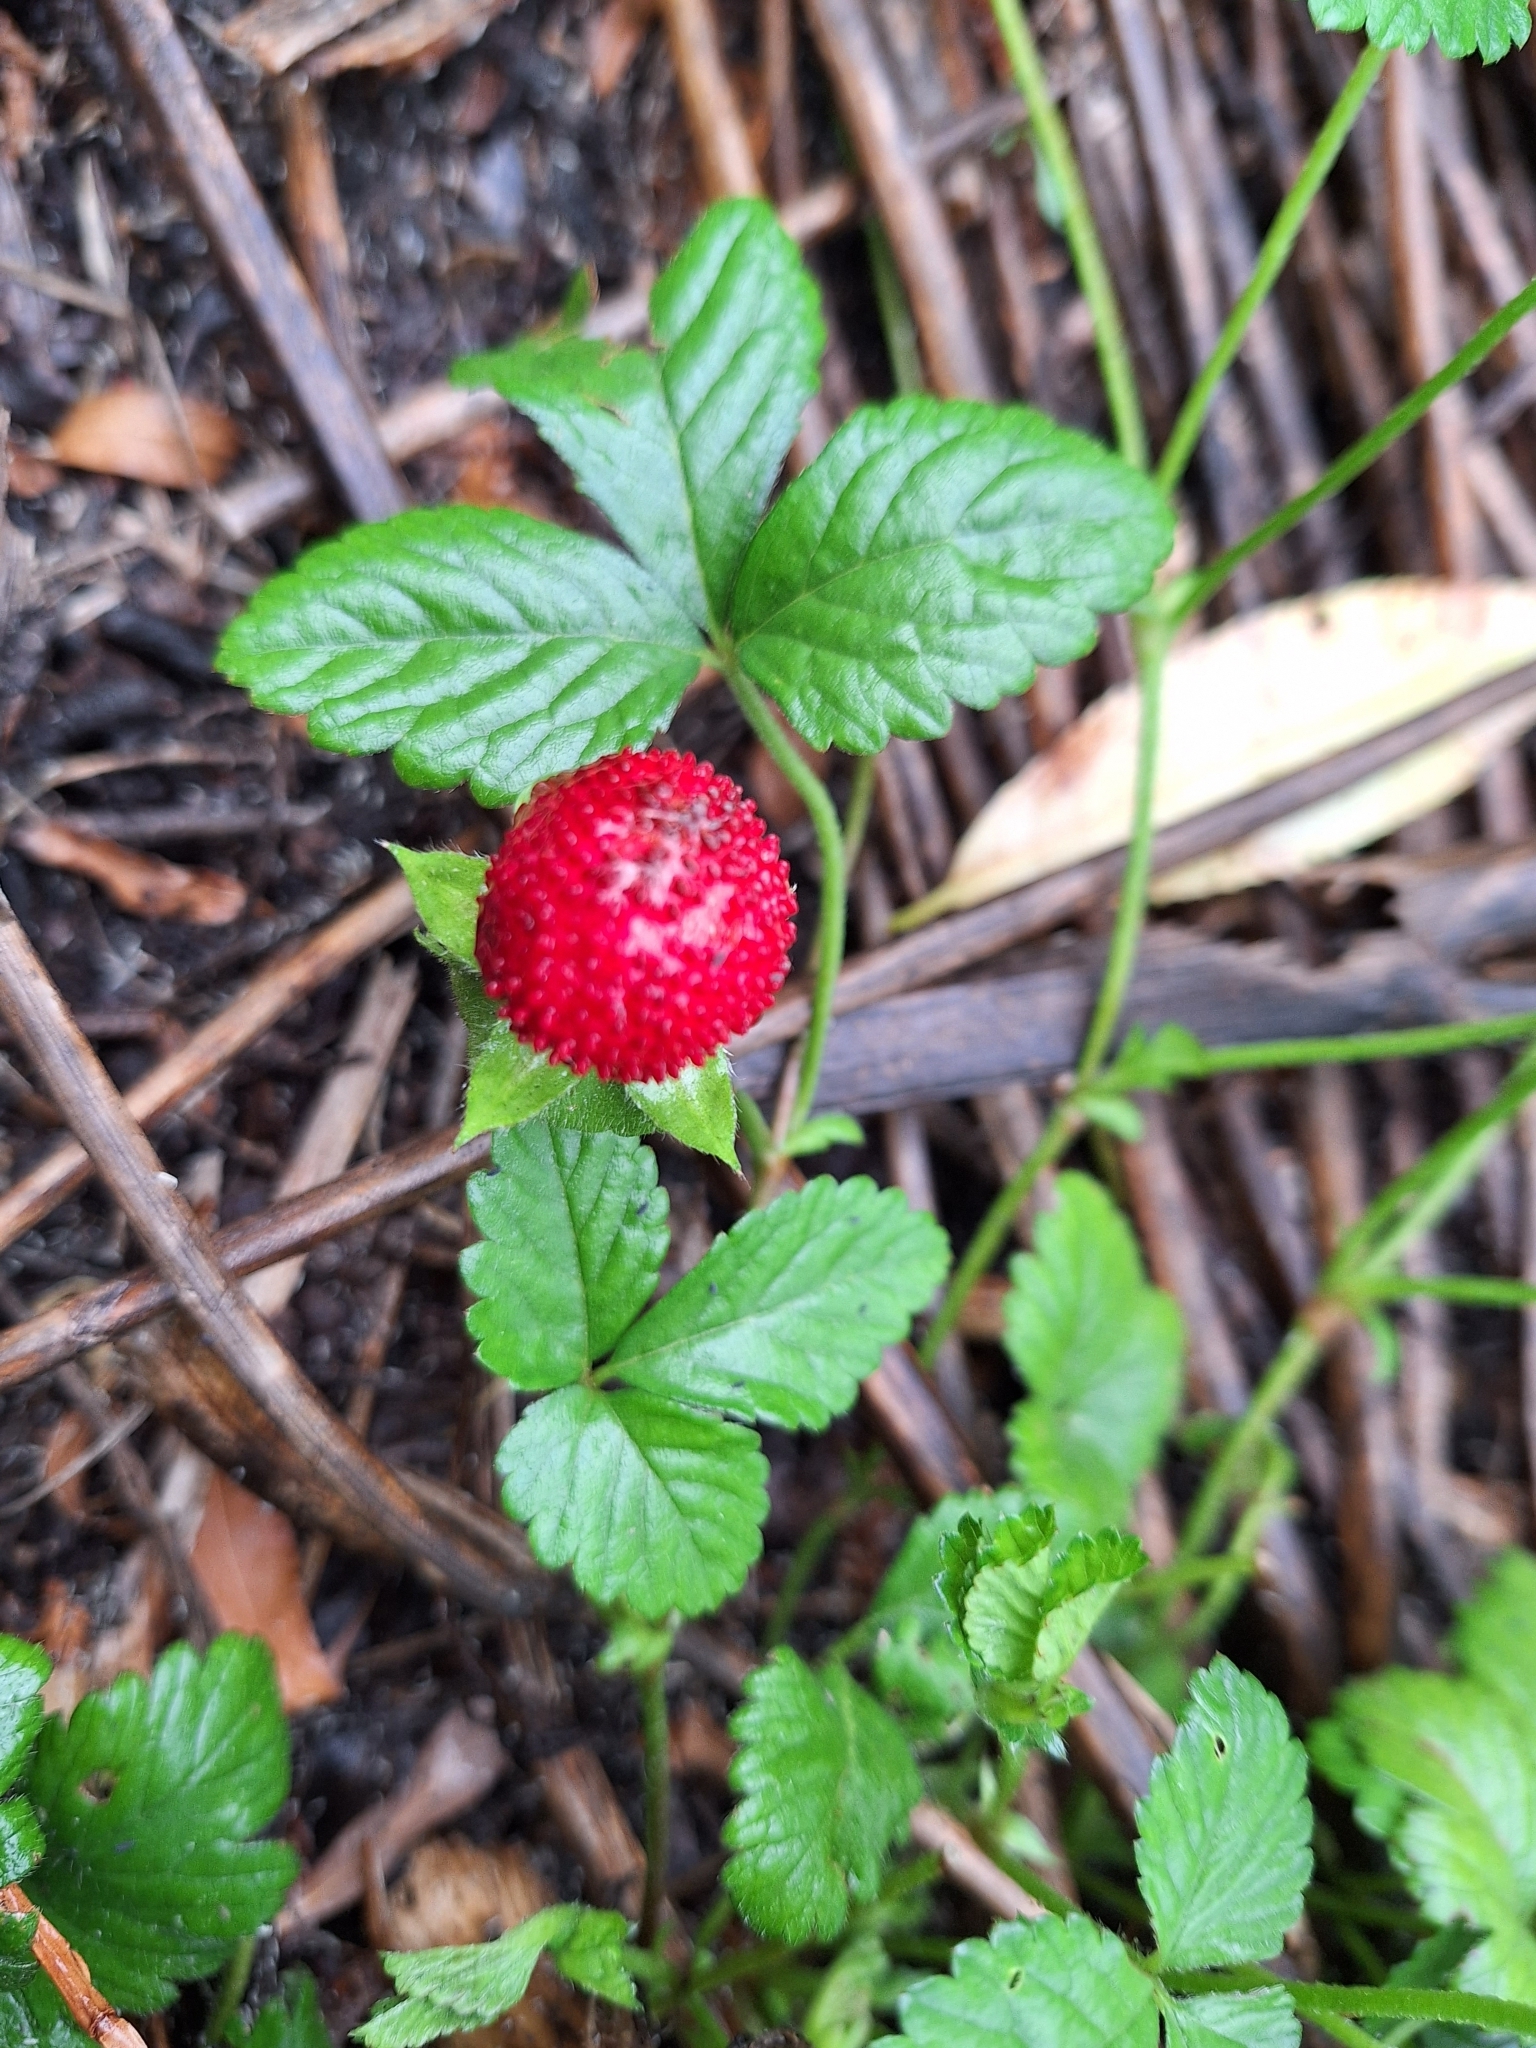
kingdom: Plantae
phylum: Tracheophyta
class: Magnoliopsida
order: Rosales
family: Rosaceae
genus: Potentilla
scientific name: Potentilla indica
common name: Yellow-flowered strawberry
